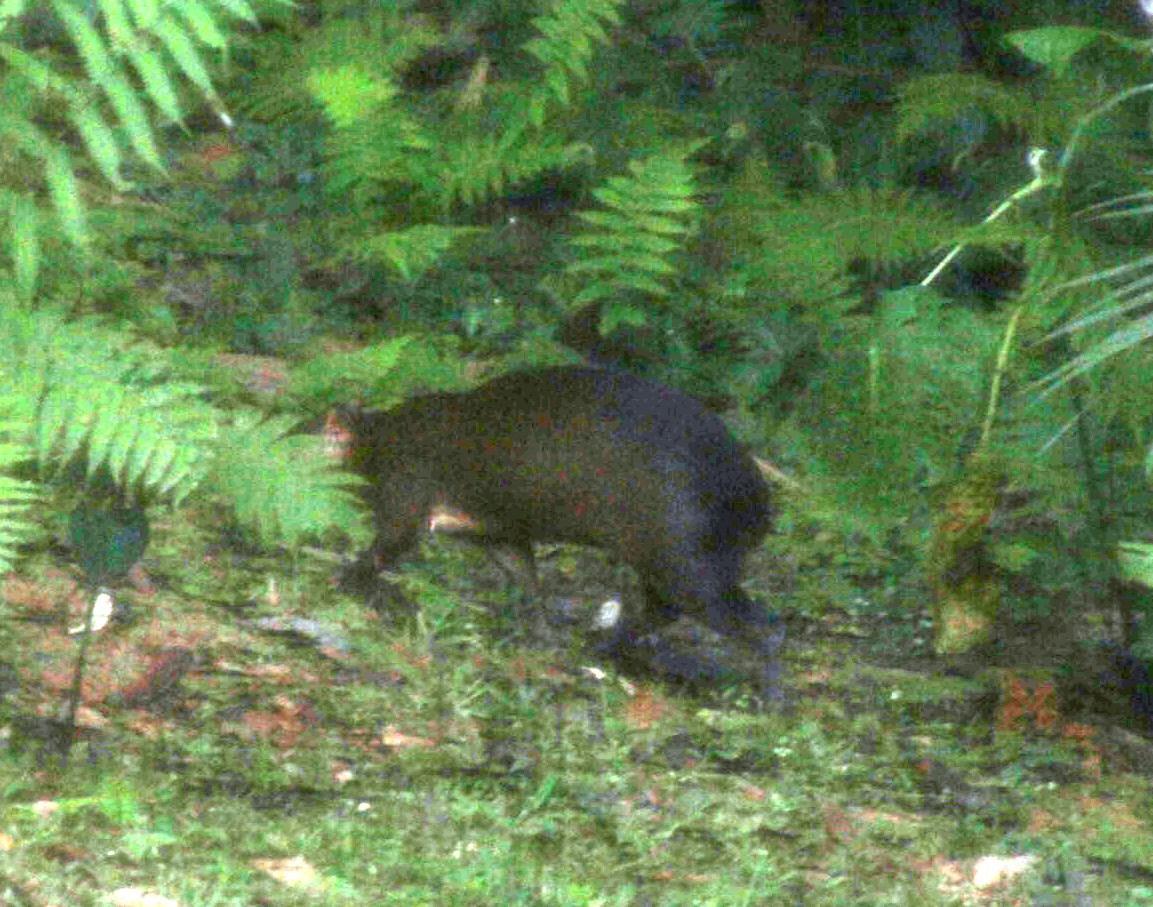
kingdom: Animalia
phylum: Chordata
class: Mammalia
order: Rodentia
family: Dasyproctidae
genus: Dasyprocta
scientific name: Dasyprocta variegata
